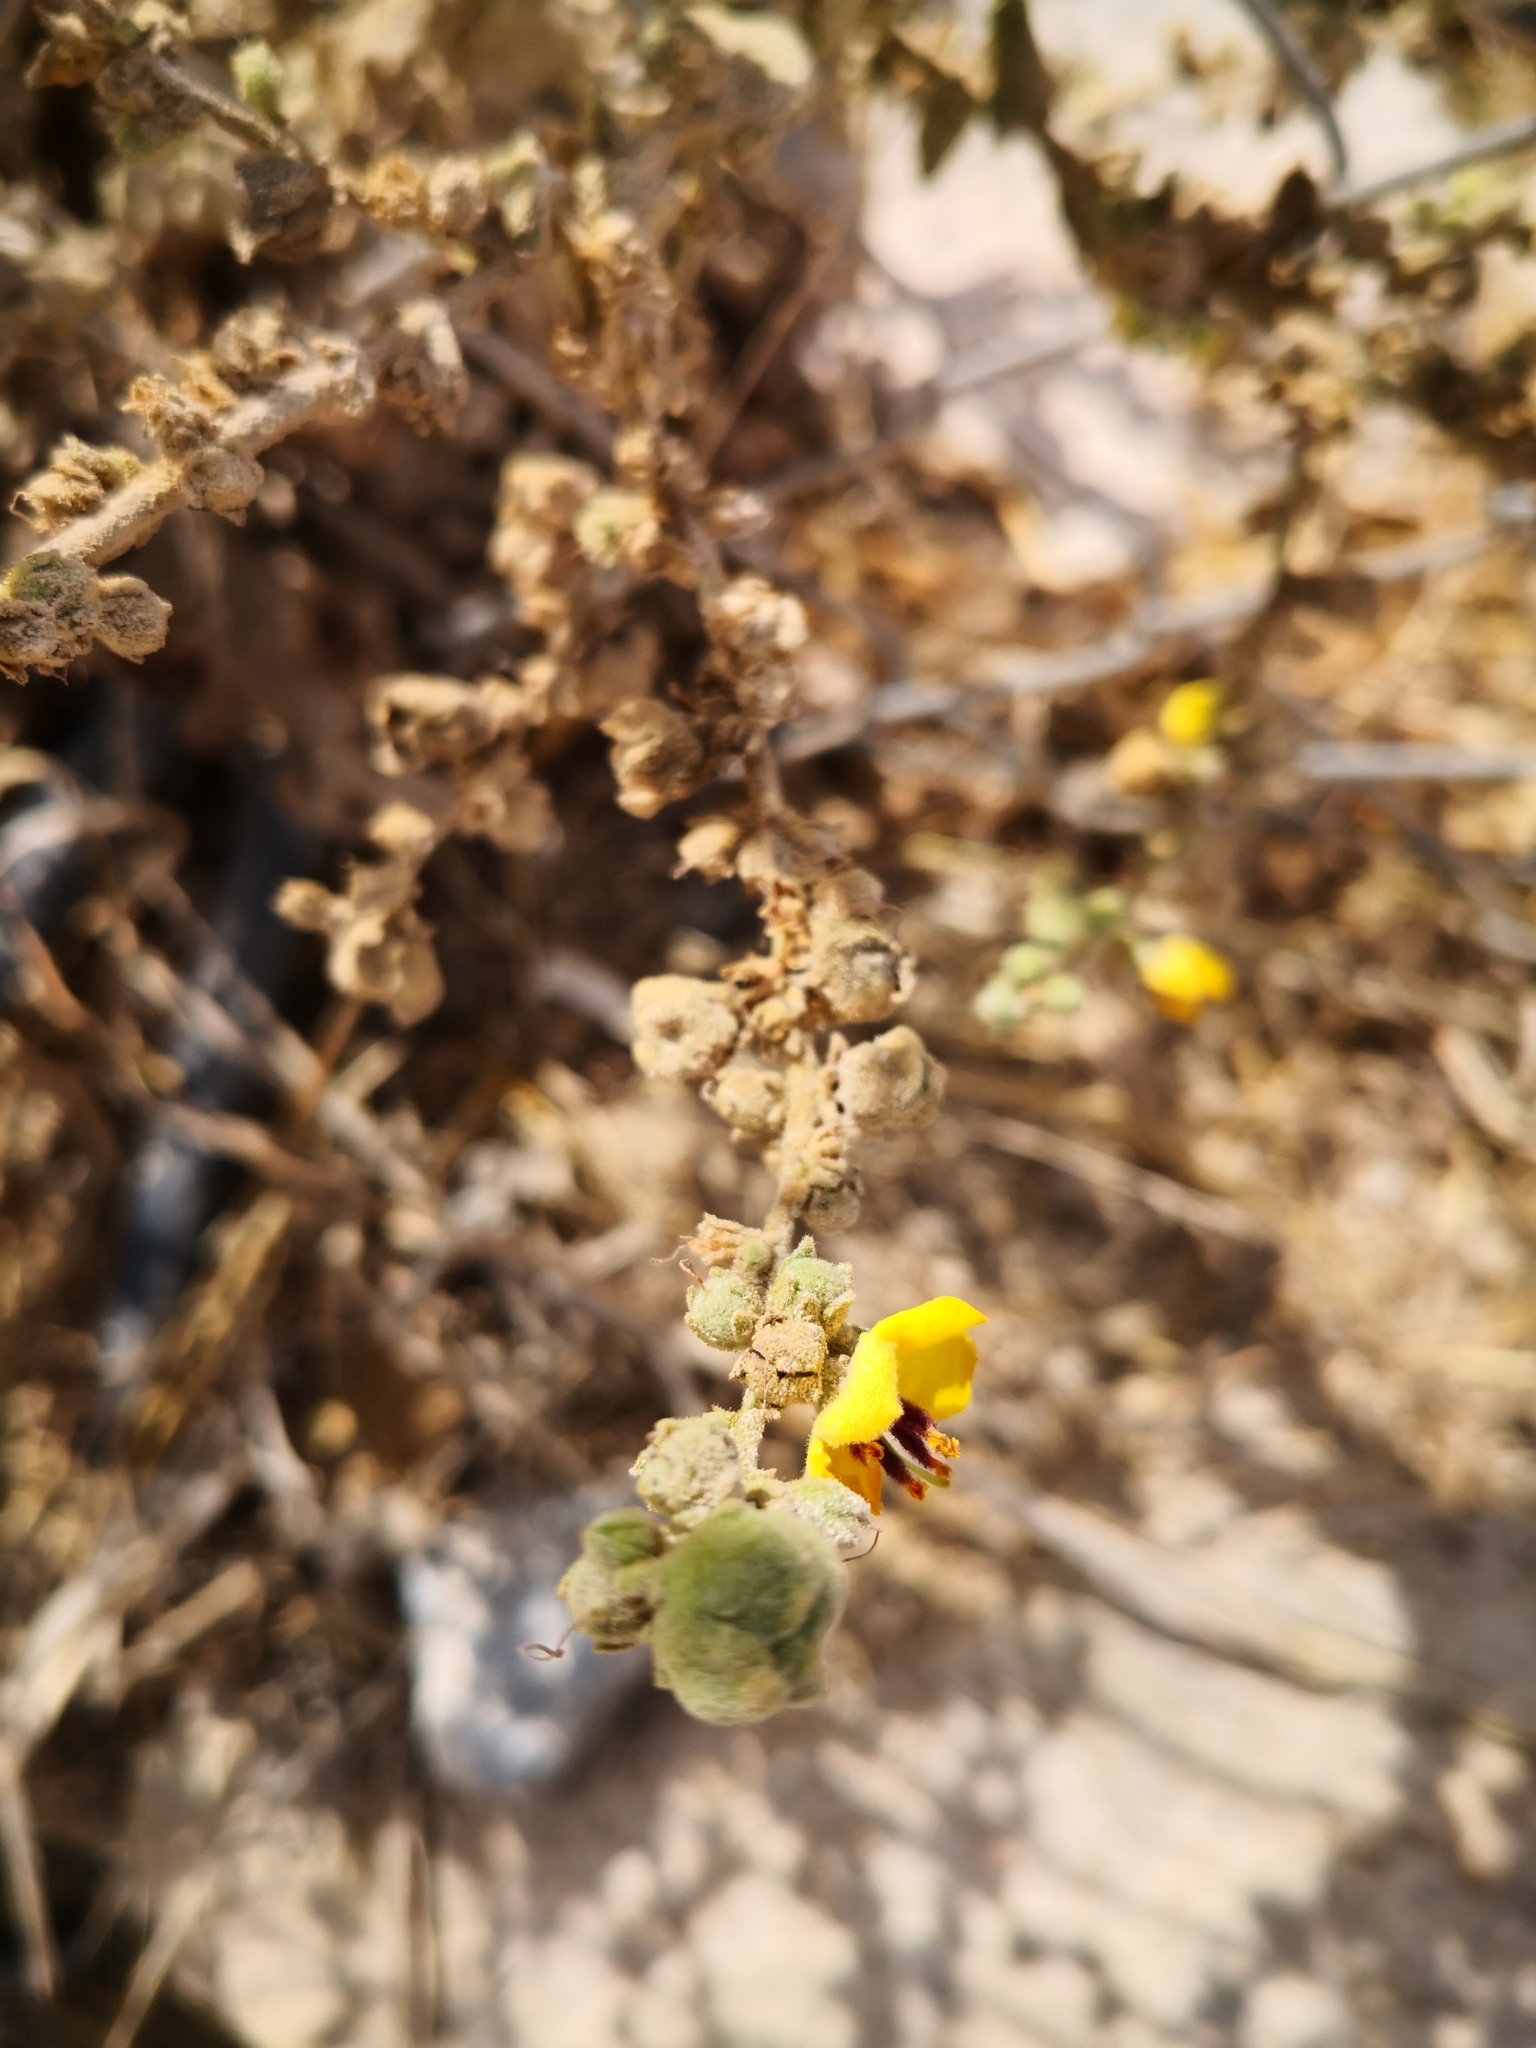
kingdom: Plantae
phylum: Tracheophyta
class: Magnoliopsida
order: Lamiales
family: Scrophulariaceae
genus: Verbascum
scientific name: Verbascum sinuatum
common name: Wavyleaf mullein
